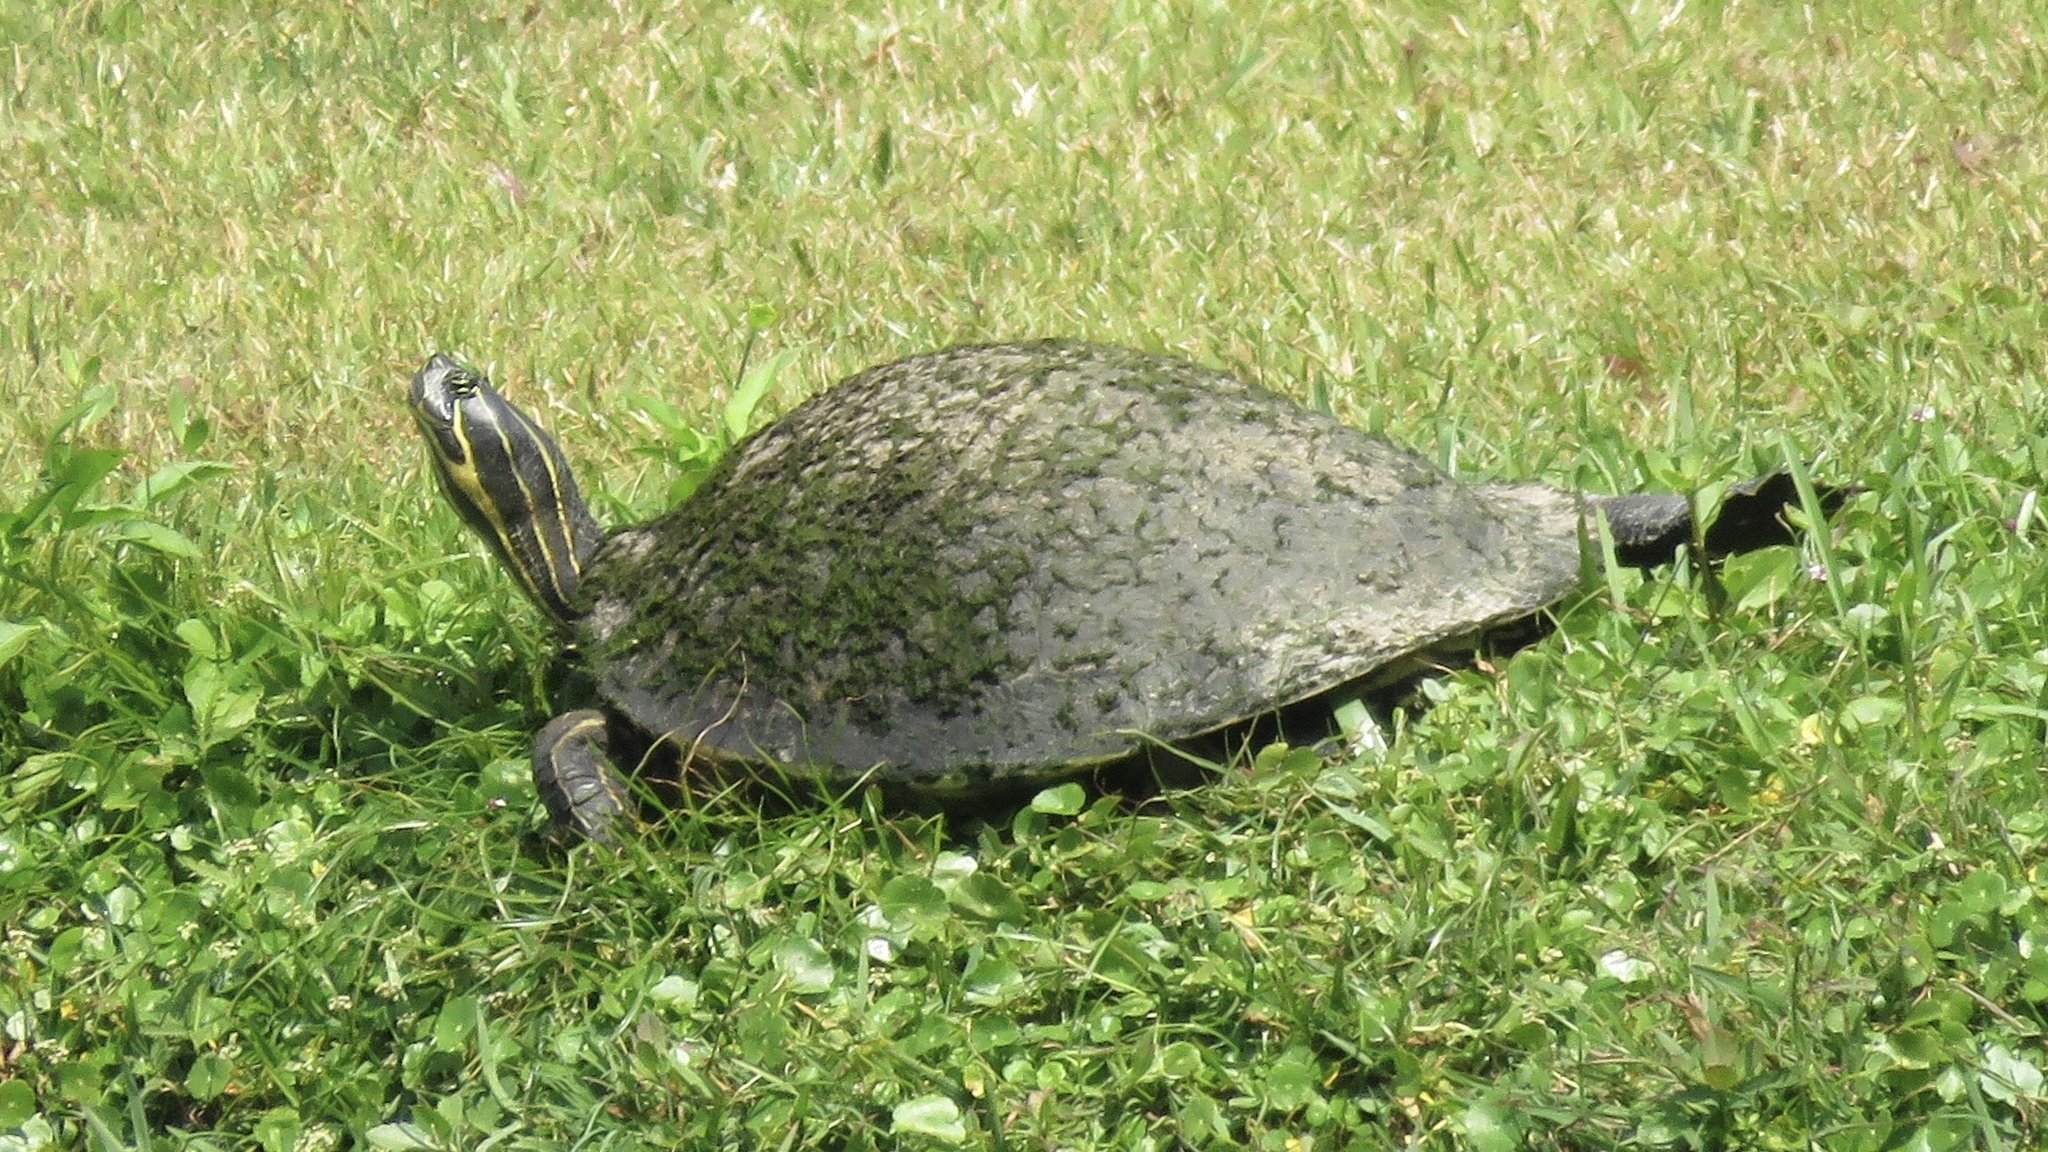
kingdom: Animalia
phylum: Chordata
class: Testudines
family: Emydidae
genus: Pseudemys
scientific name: Pseudemys peninsularis
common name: Peninsula cooter
